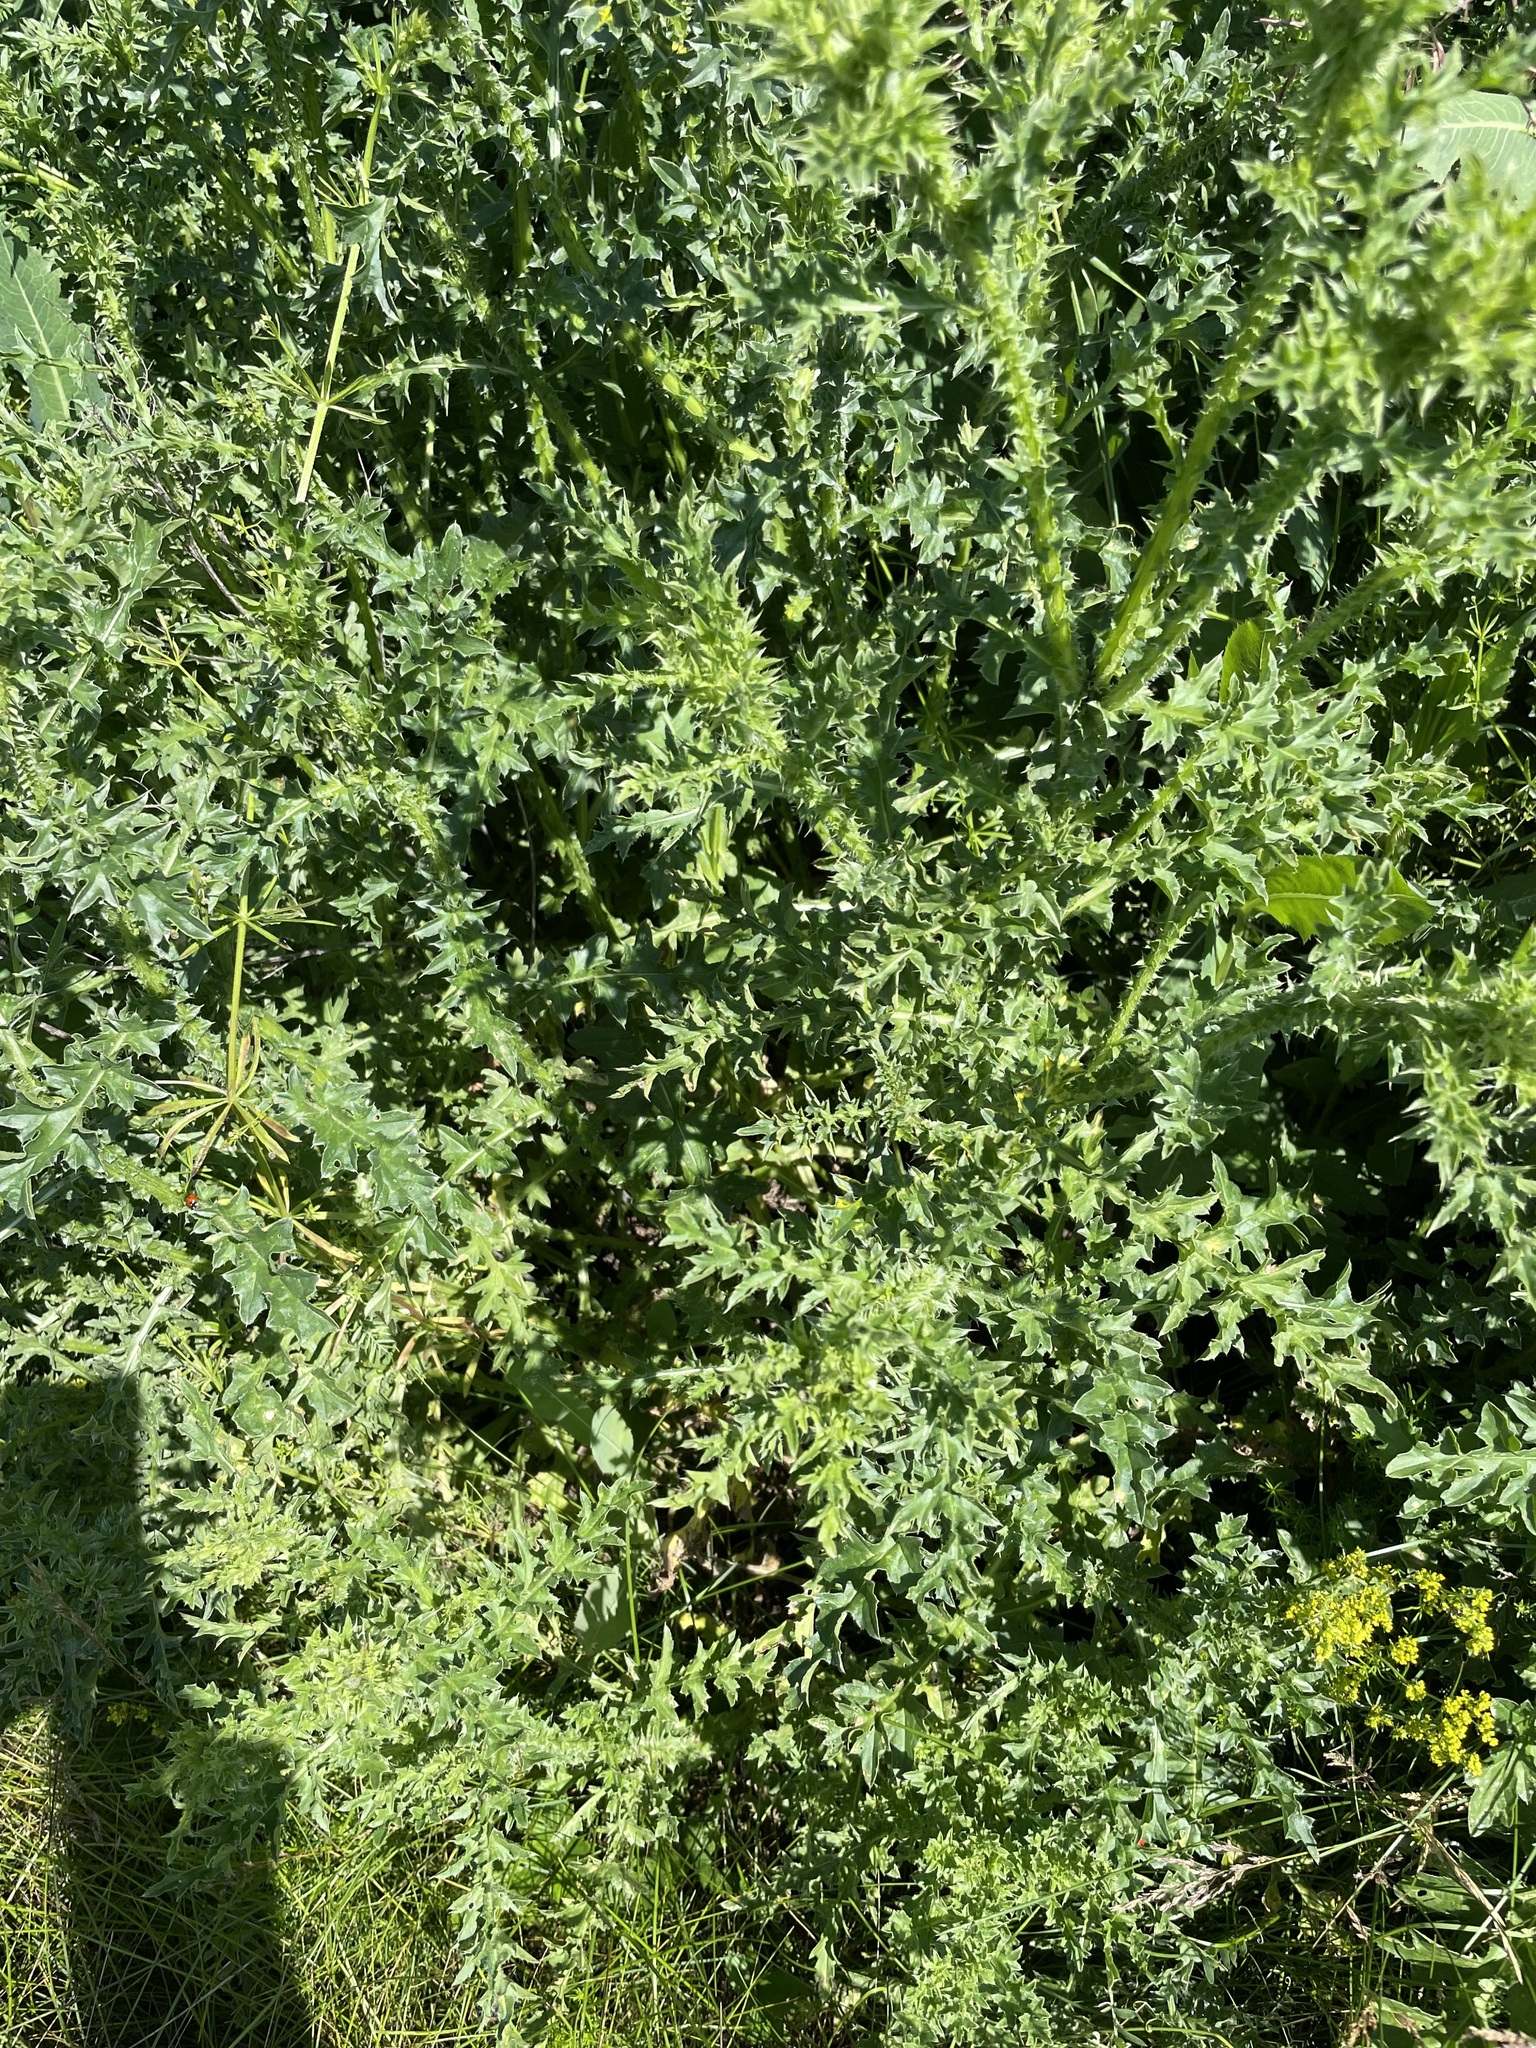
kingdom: Plantae
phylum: Tracheophyta
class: Magnoliopsida
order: Asterales
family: Asteraceae
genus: Carduus
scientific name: Carduus acanthoides
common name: Plumeless thistle
